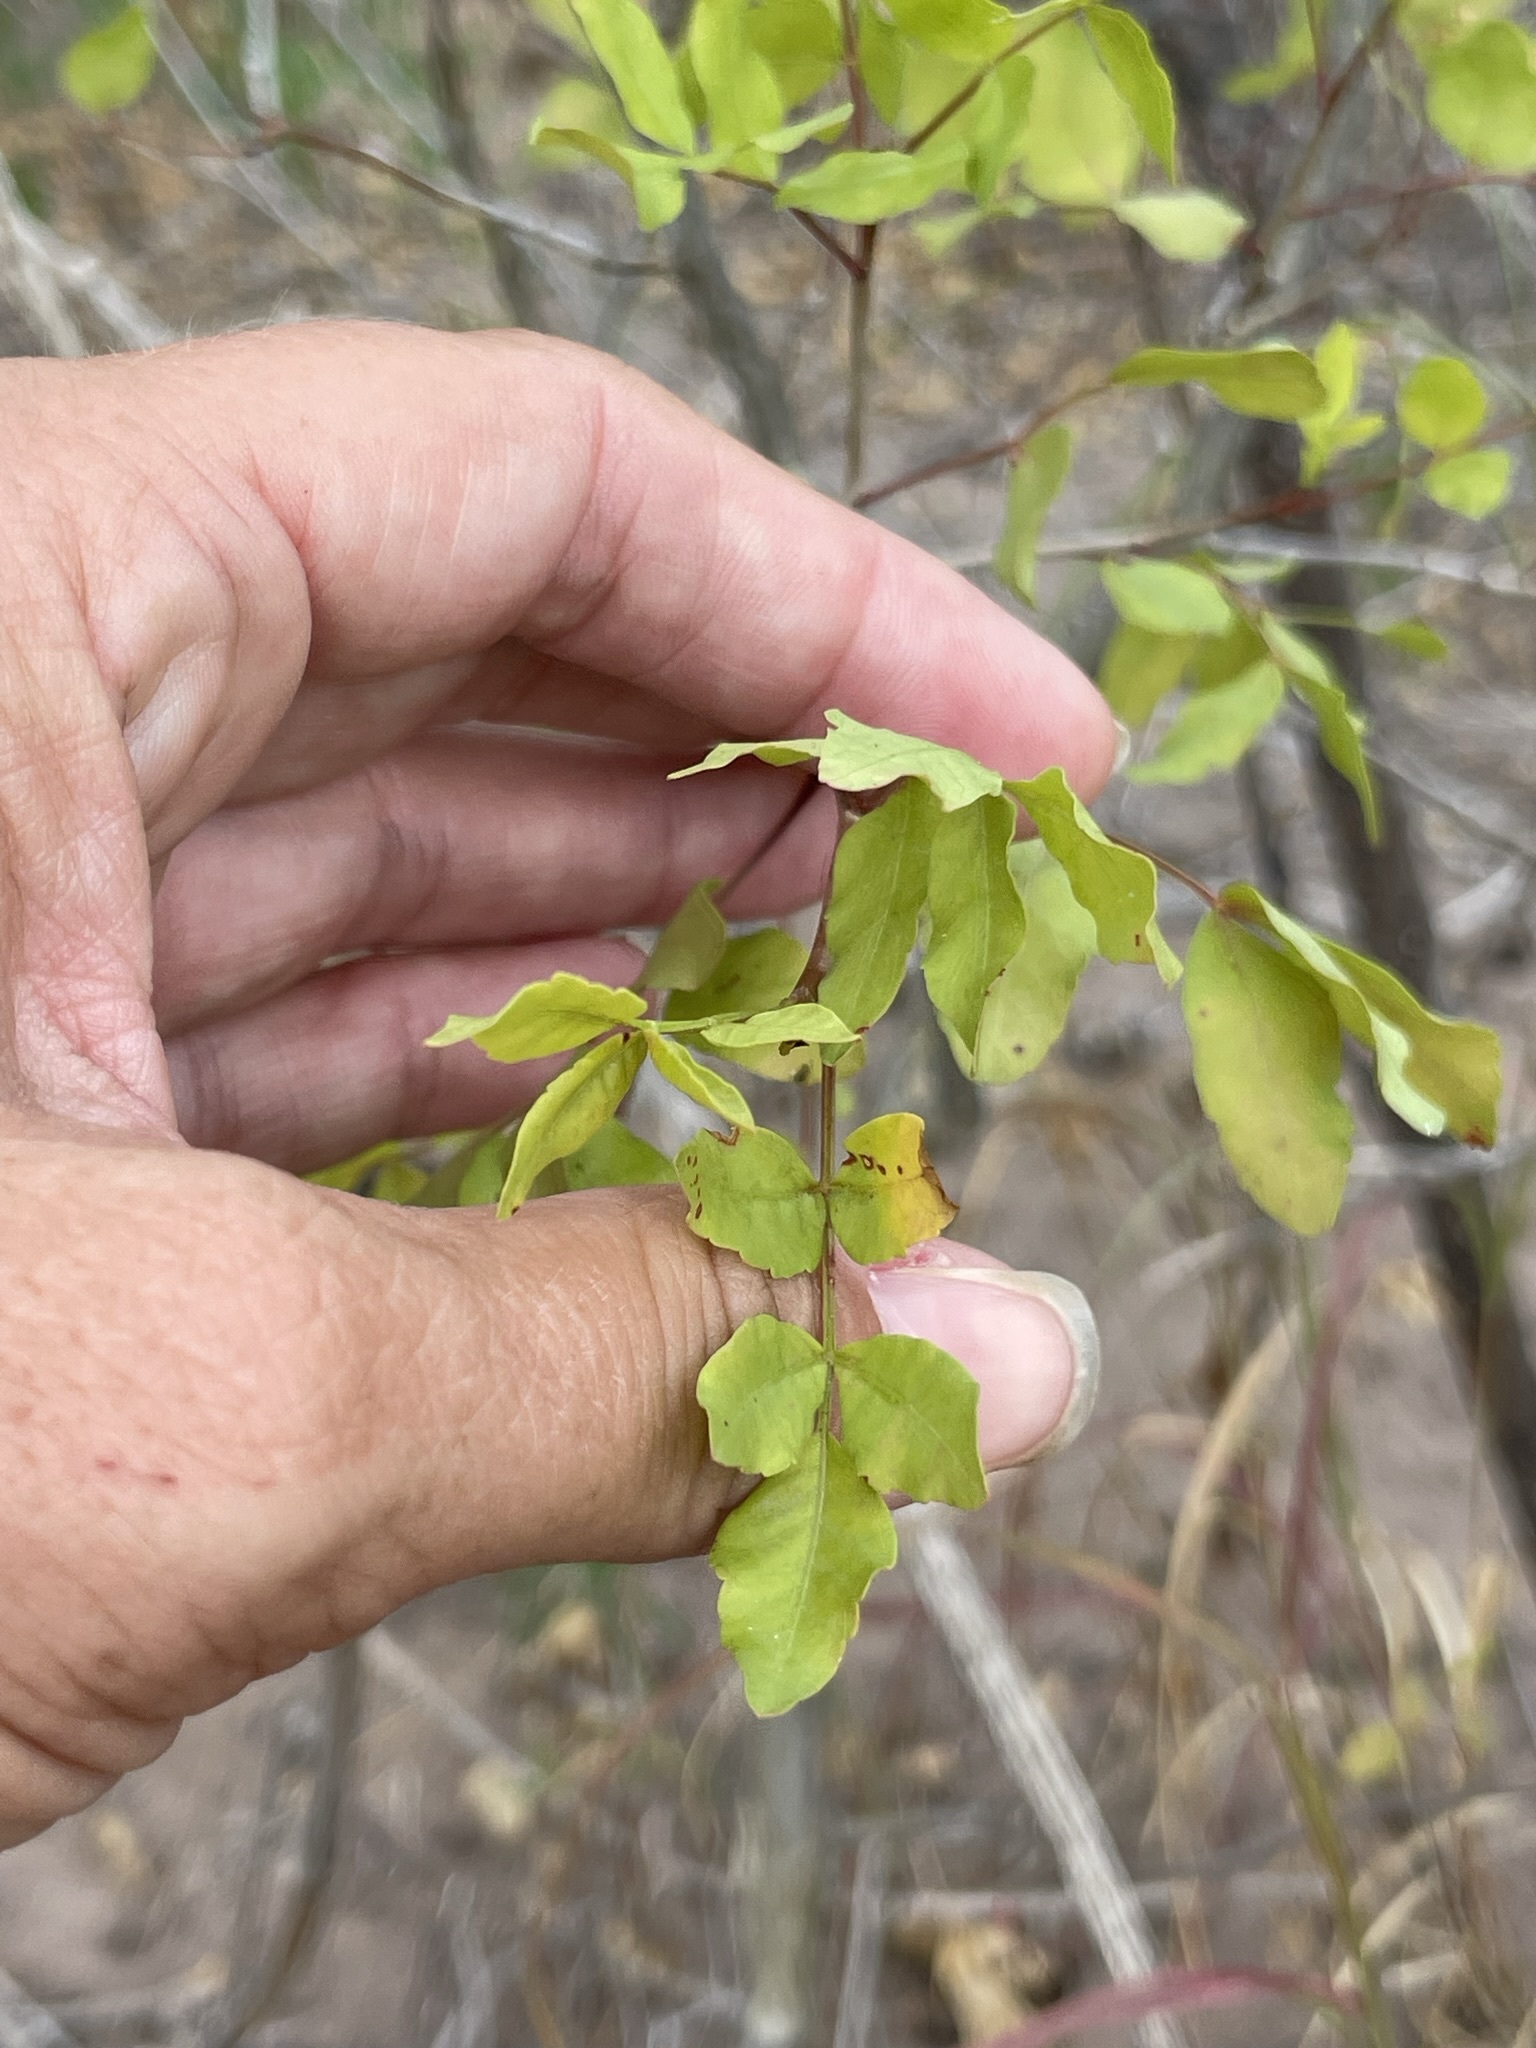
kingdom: Plantae
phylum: Tracheophyta
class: Magnoliopsida
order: Sapindales
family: Burseraceae
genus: Bursera
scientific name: Bursera fagaroides
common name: Elephant tree
